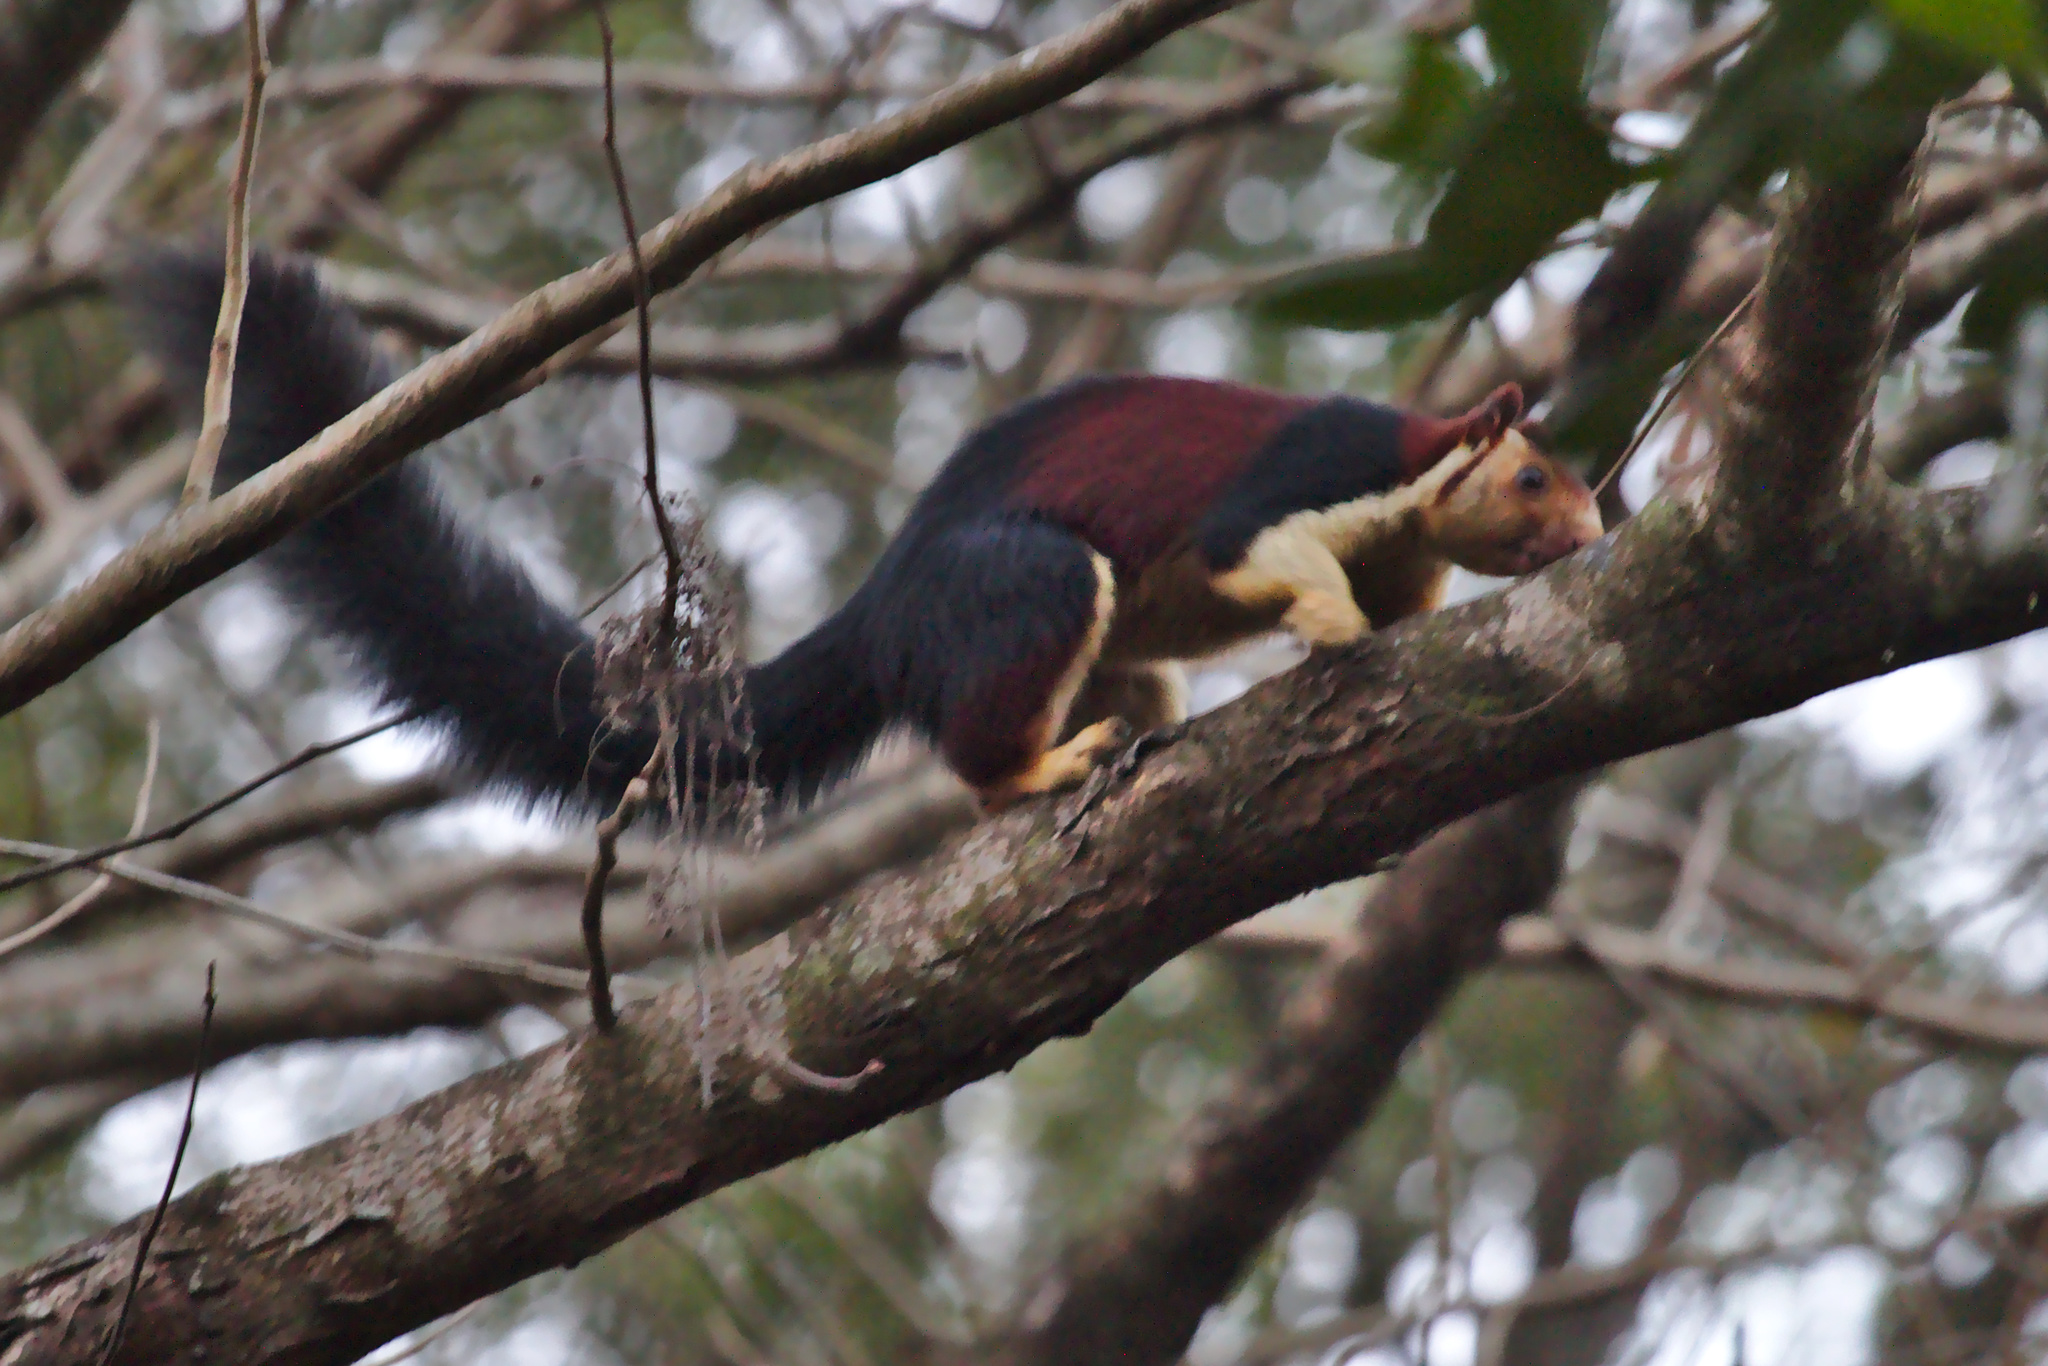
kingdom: Animalia
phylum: Chordata
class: Mammalia
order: Rodentia
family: Sciuridae
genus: Ratufa
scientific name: Ratufa indica
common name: Indian giant squirrel
